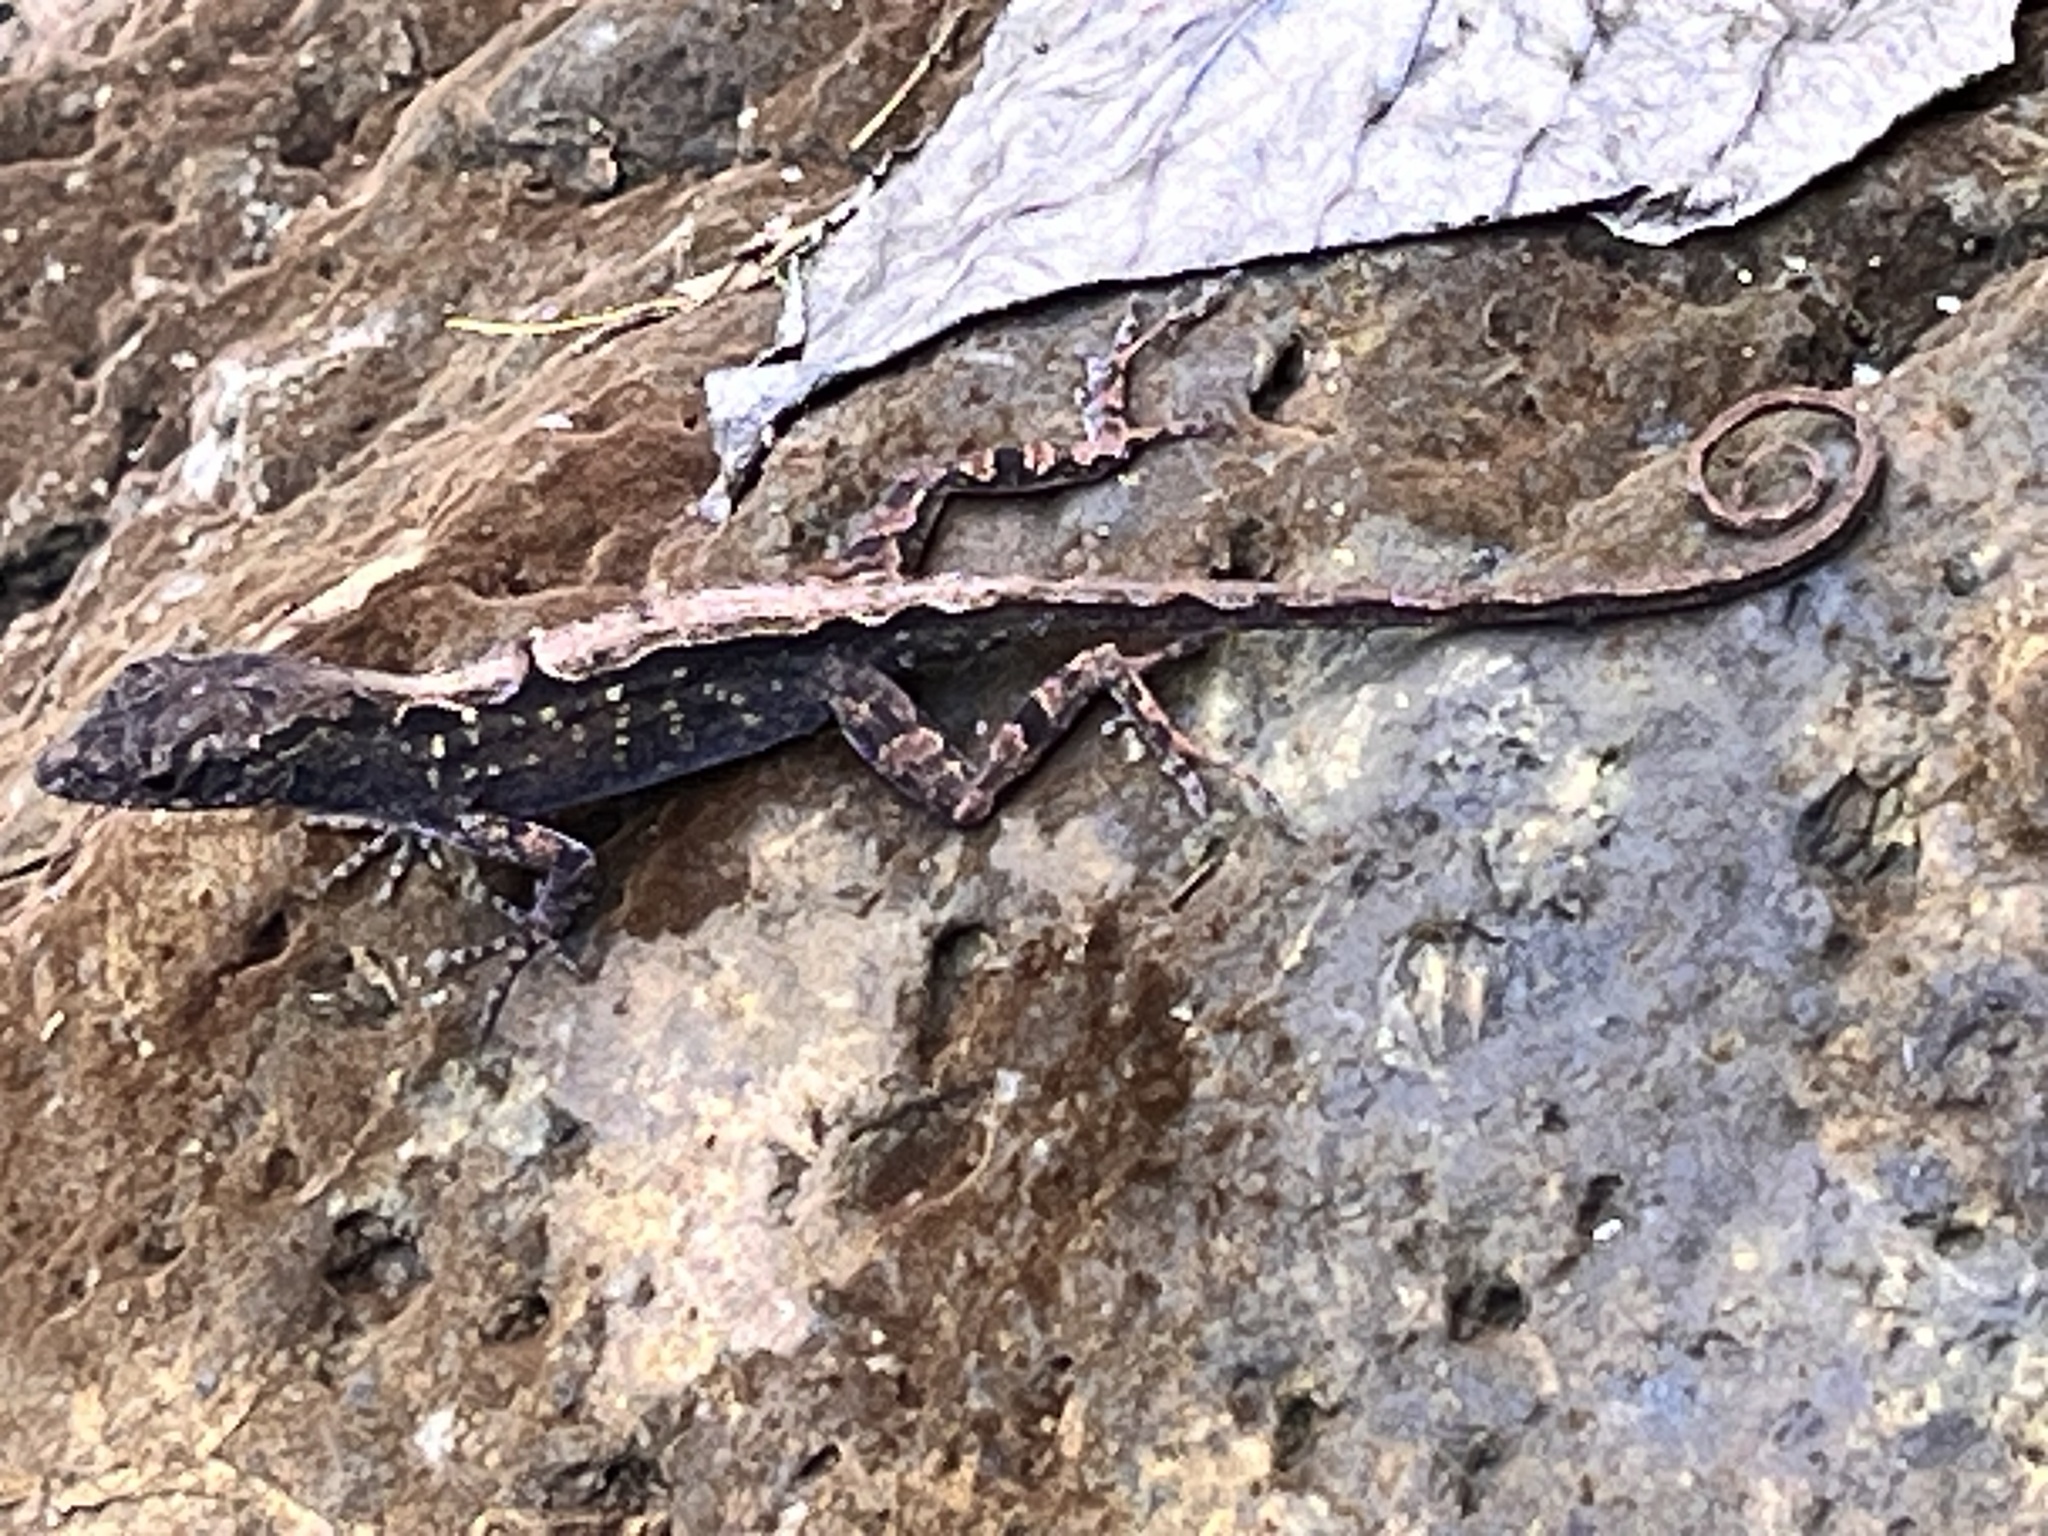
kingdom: Animalia
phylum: Chordata
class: Squamata
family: Dactyloidae
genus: Anolis
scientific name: Anolis sagrei
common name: Brown anole
